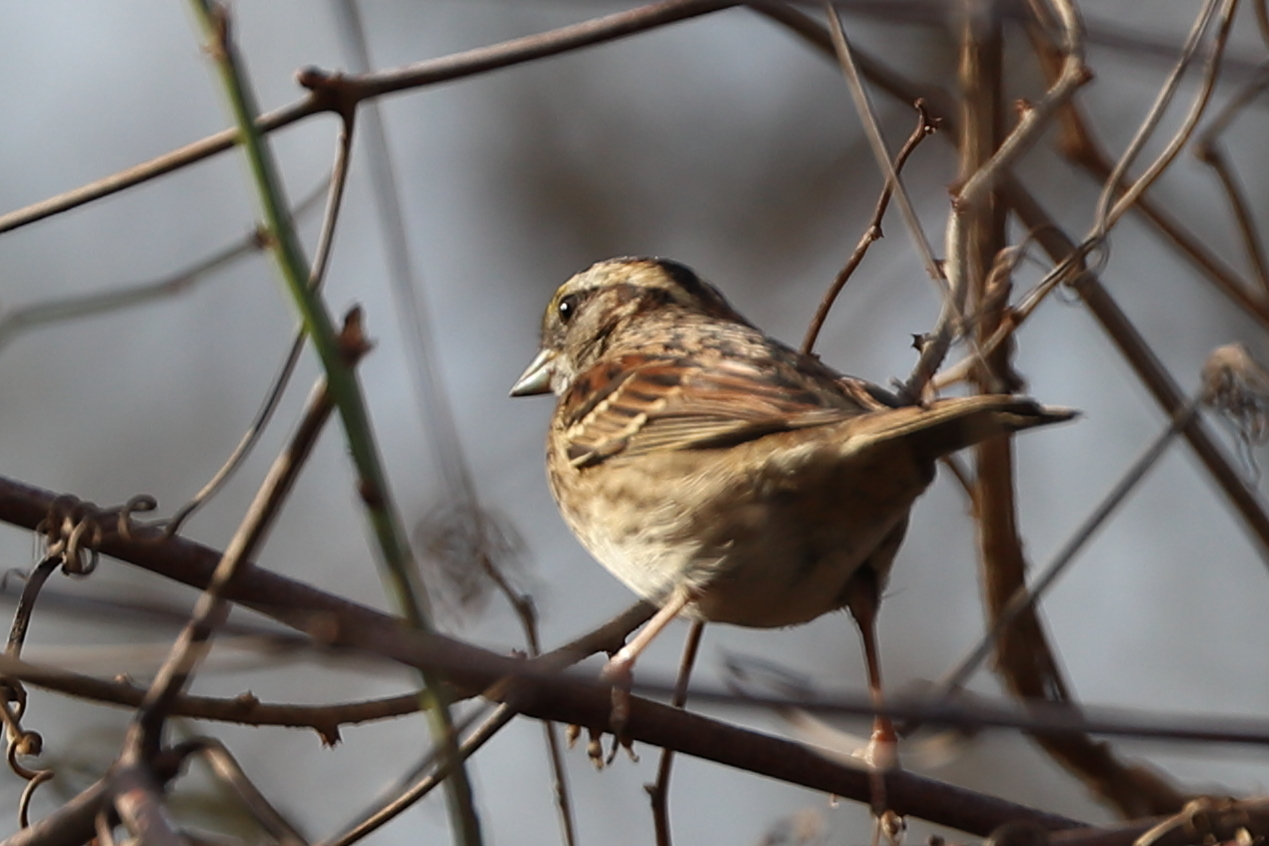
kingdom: Animalia
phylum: Chordata
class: Aves
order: Passeriformes
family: Passerellidae
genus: Zonotrichia
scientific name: Zonotrichia albicollis
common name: White-throated sparrow
